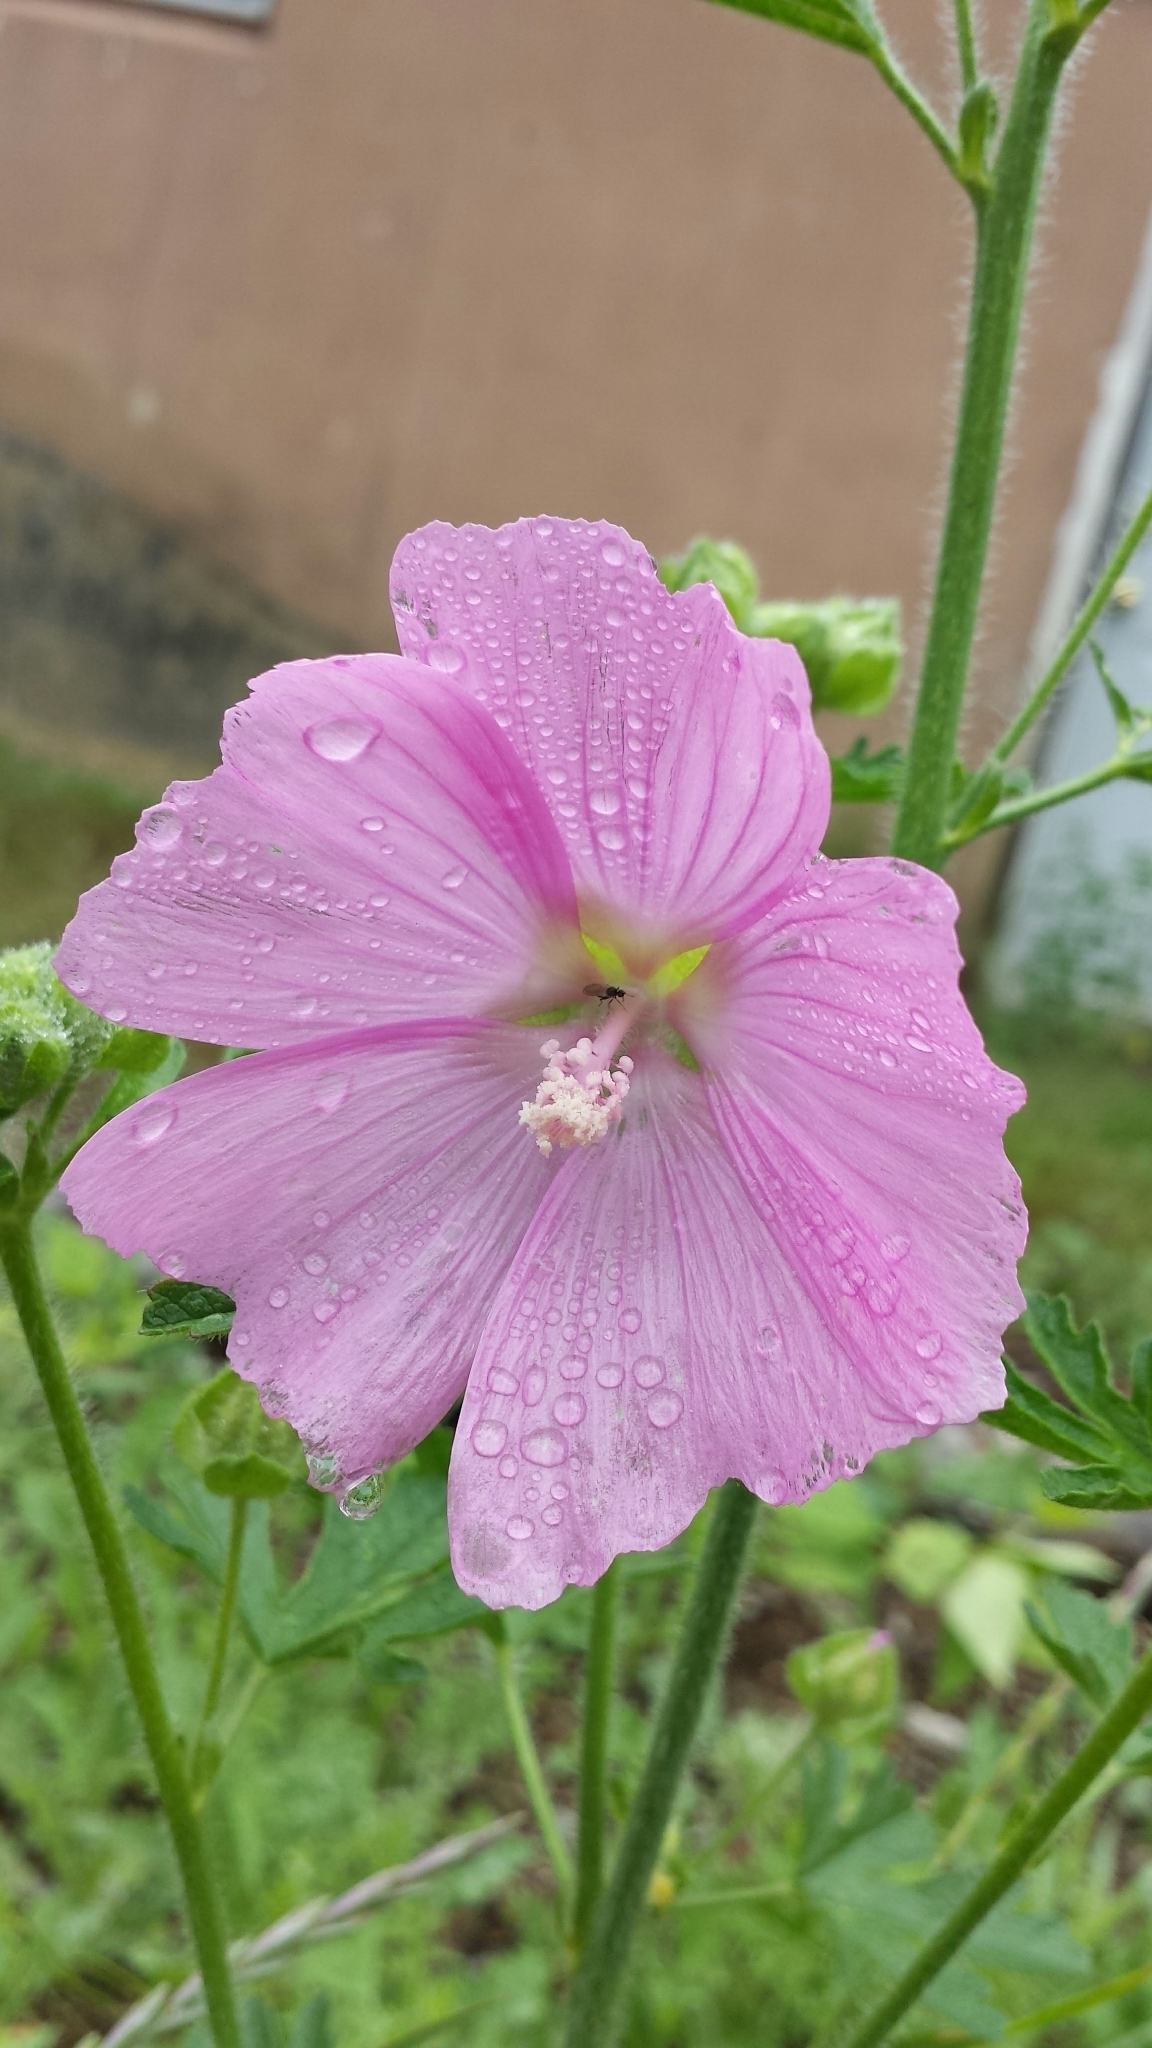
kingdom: Plantae
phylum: Tracheophyta
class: Magnoliopsida
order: Malvales
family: Malvaceae
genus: Malva
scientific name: Malva alcea
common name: Greater musk-mallow
